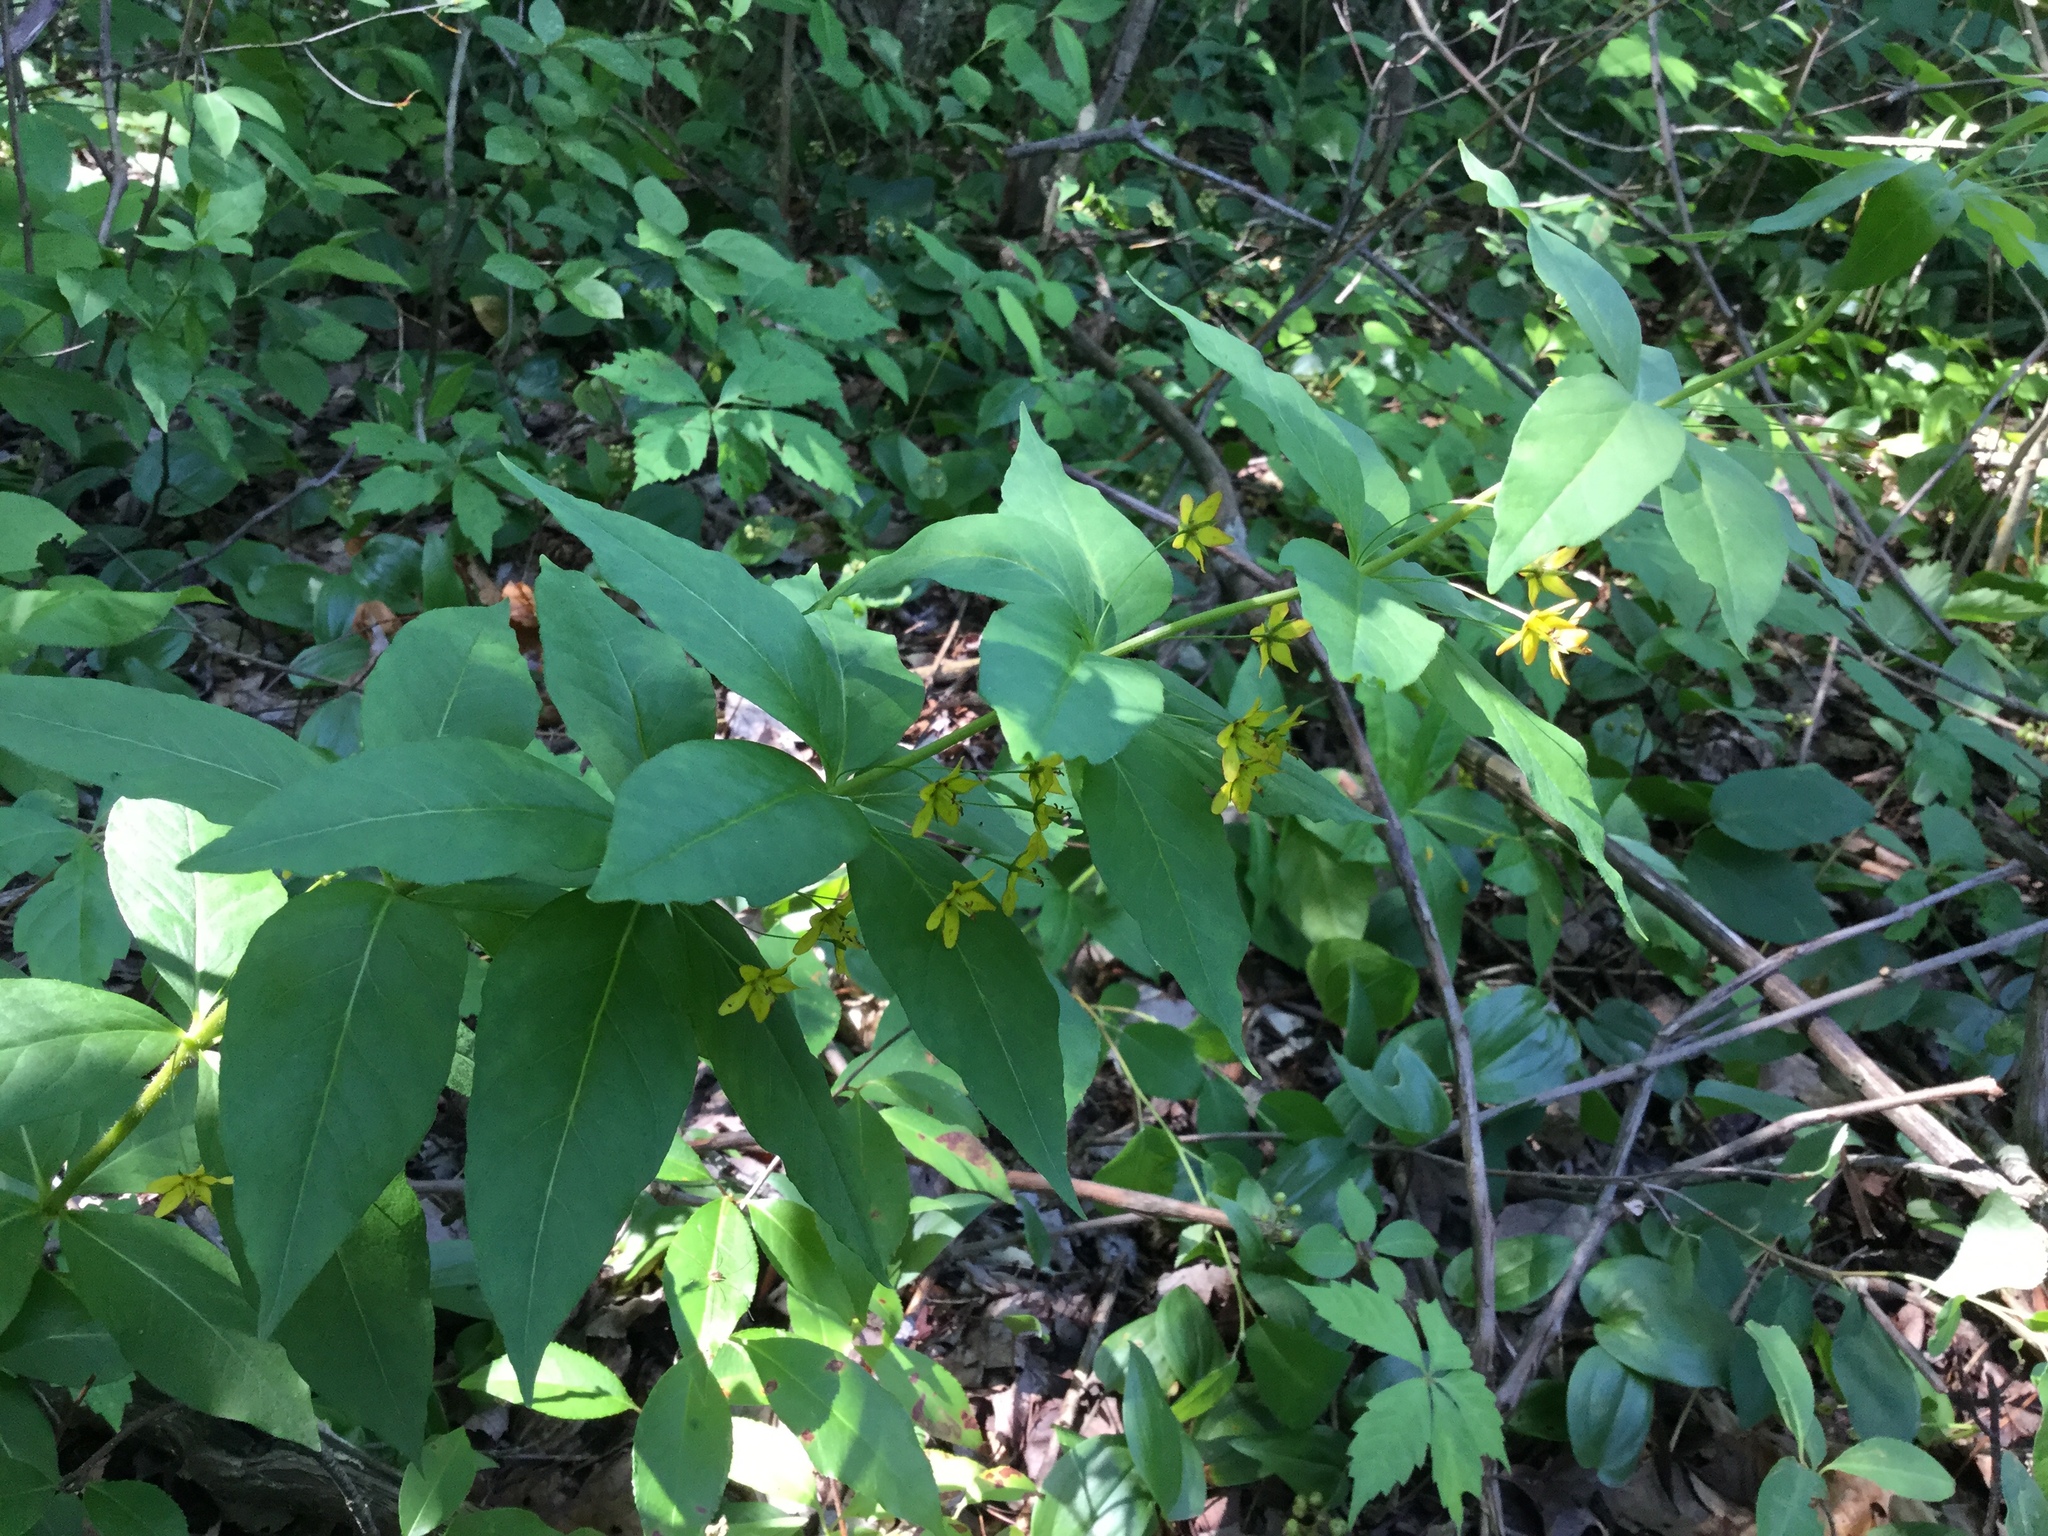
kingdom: Plantae
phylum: Tracheophyta
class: Magnoliopsida
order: Ericales
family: Primulaceae
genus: Lysimachia
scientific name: Lysimachia quadrifolia
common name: Whorled loosestrife
